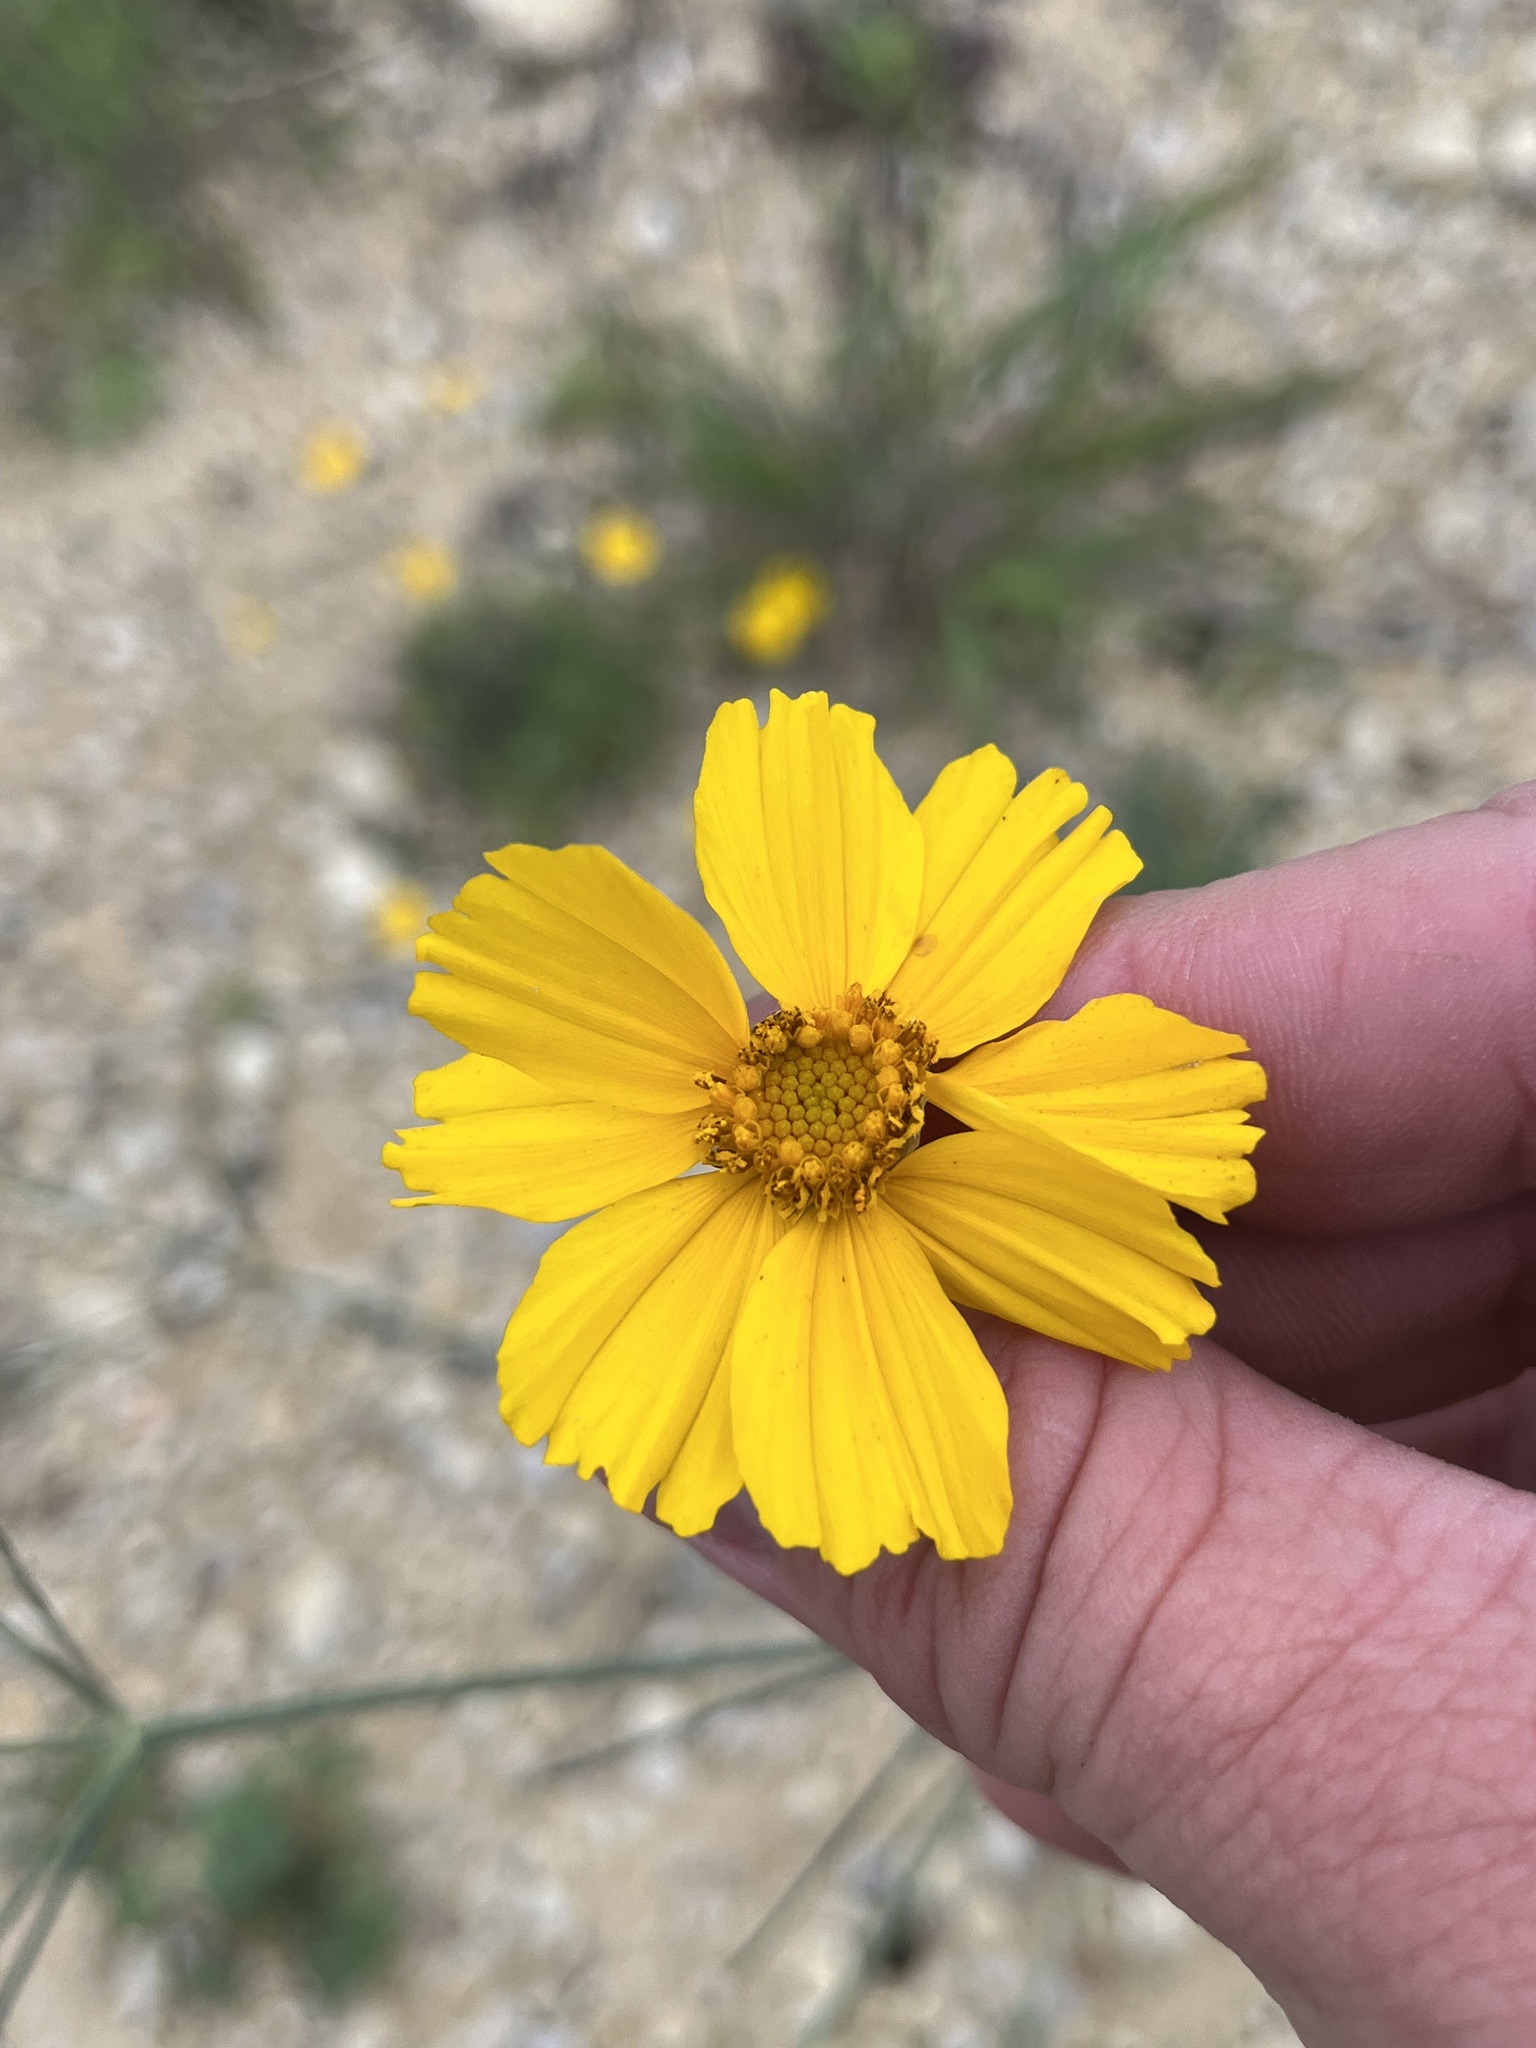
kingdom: Plantae
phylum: Tracheophyta
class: Magnoliopsida
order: Asterales
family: Asteraceae
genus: Thelesperma
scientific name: Thelesperma simplicifolium
